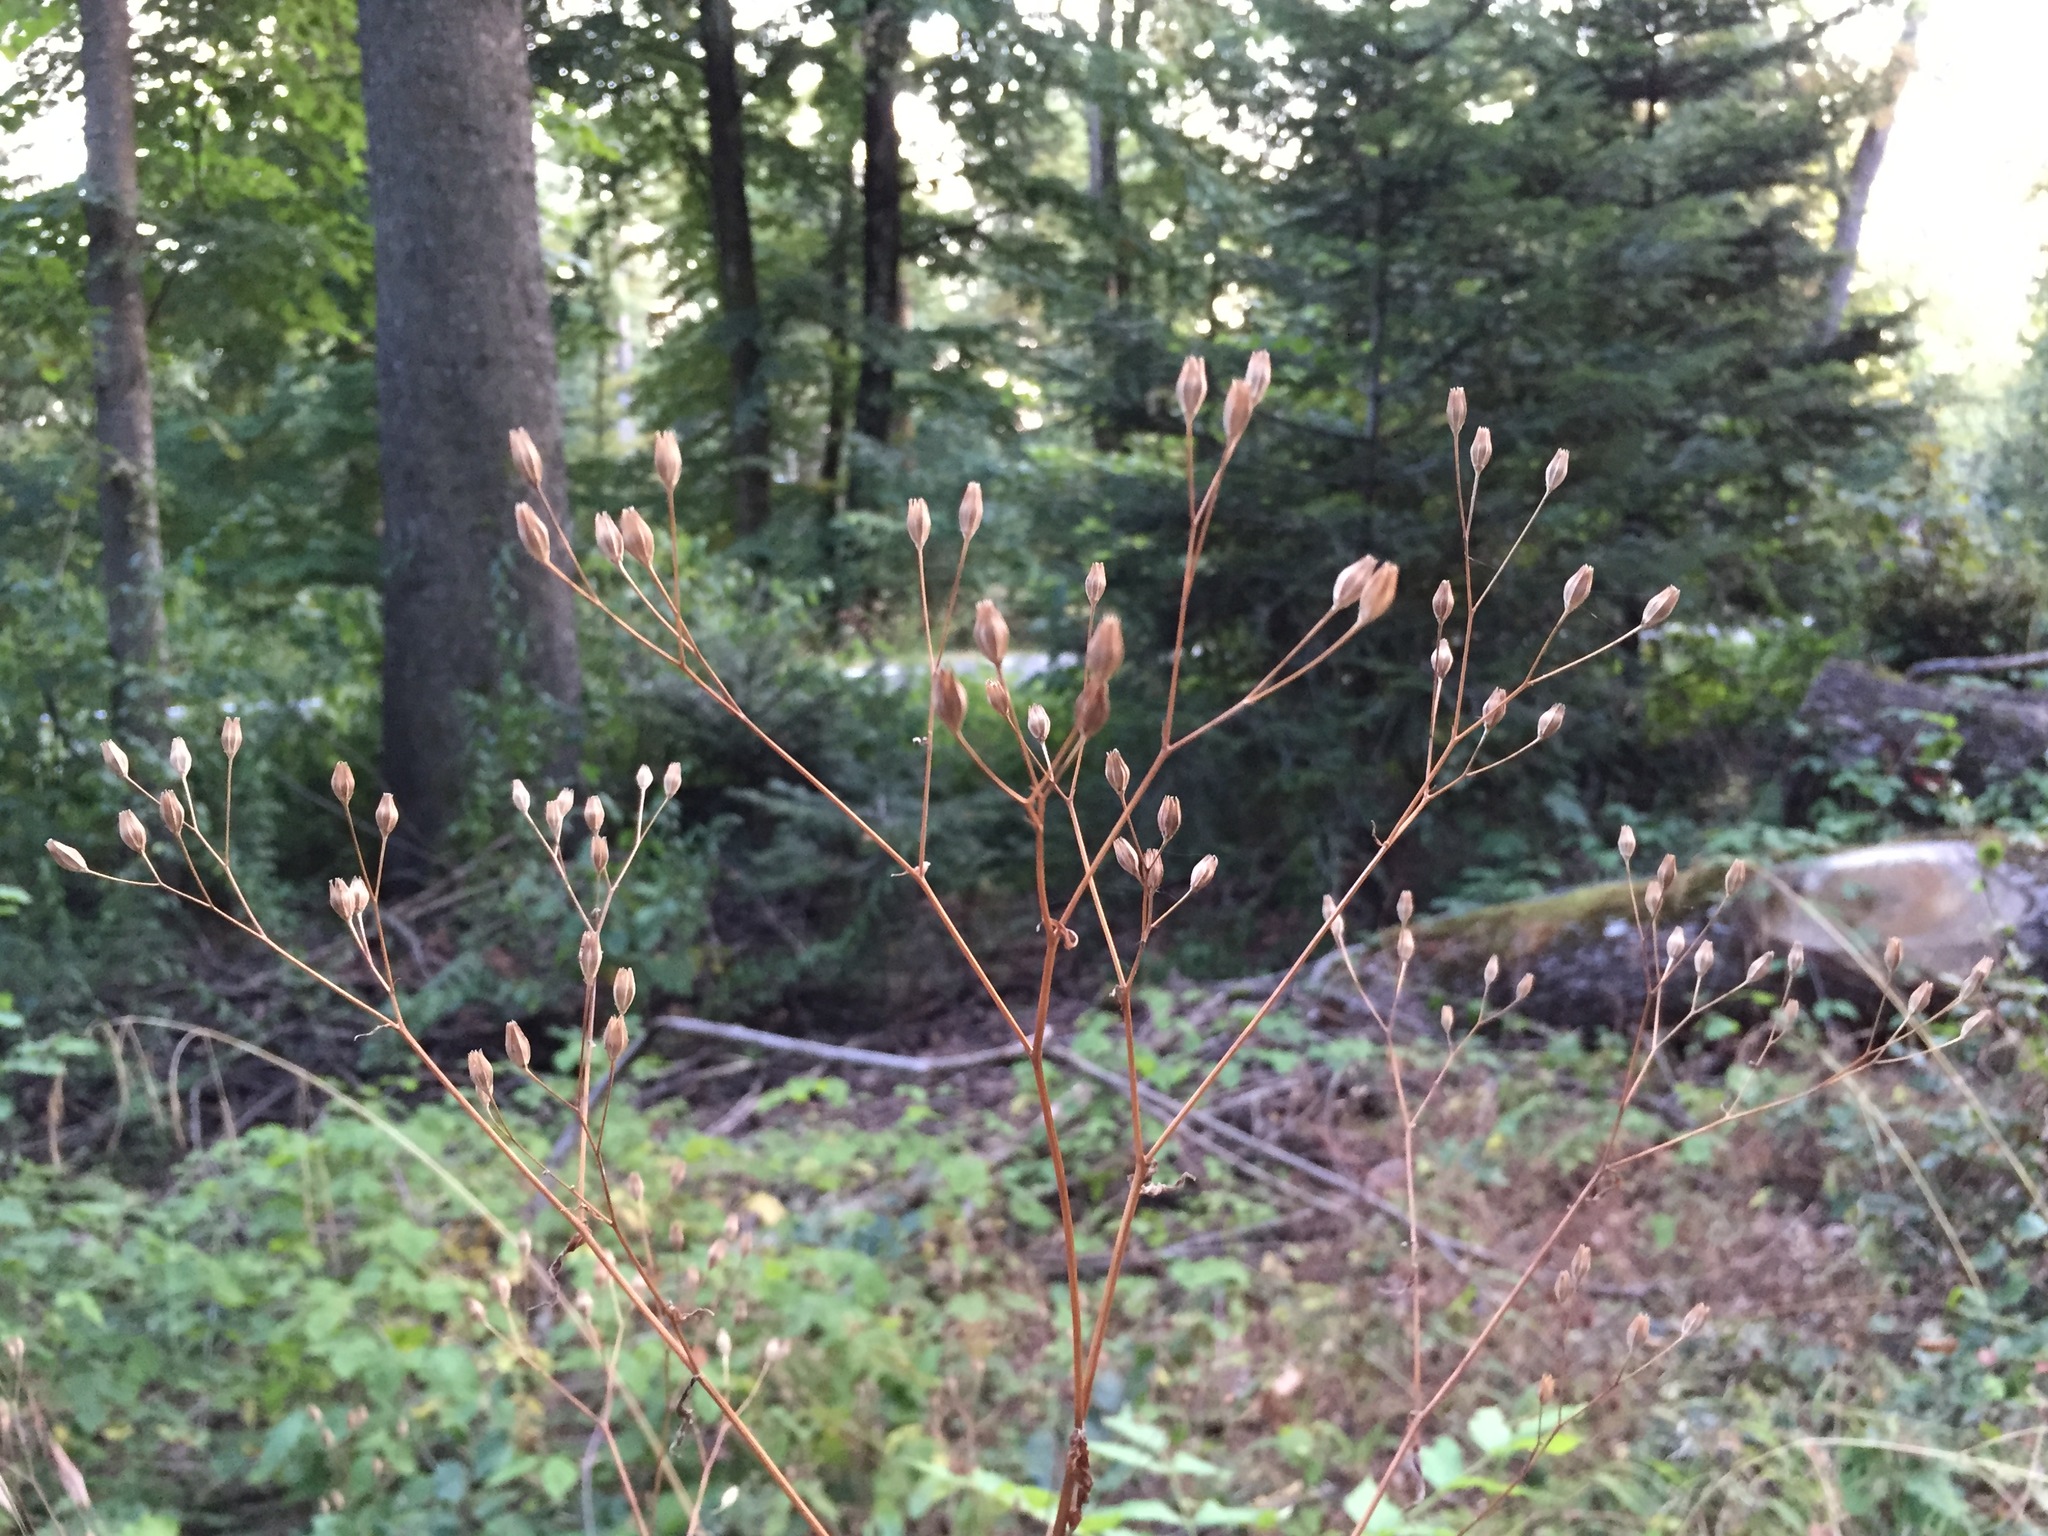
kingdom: Plantae
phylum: Tracheophyta
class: Magnoliopsida
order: Asterales
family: Asteraceae
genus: Lapsana
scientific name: Lapsana communis
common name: Nipplewort
